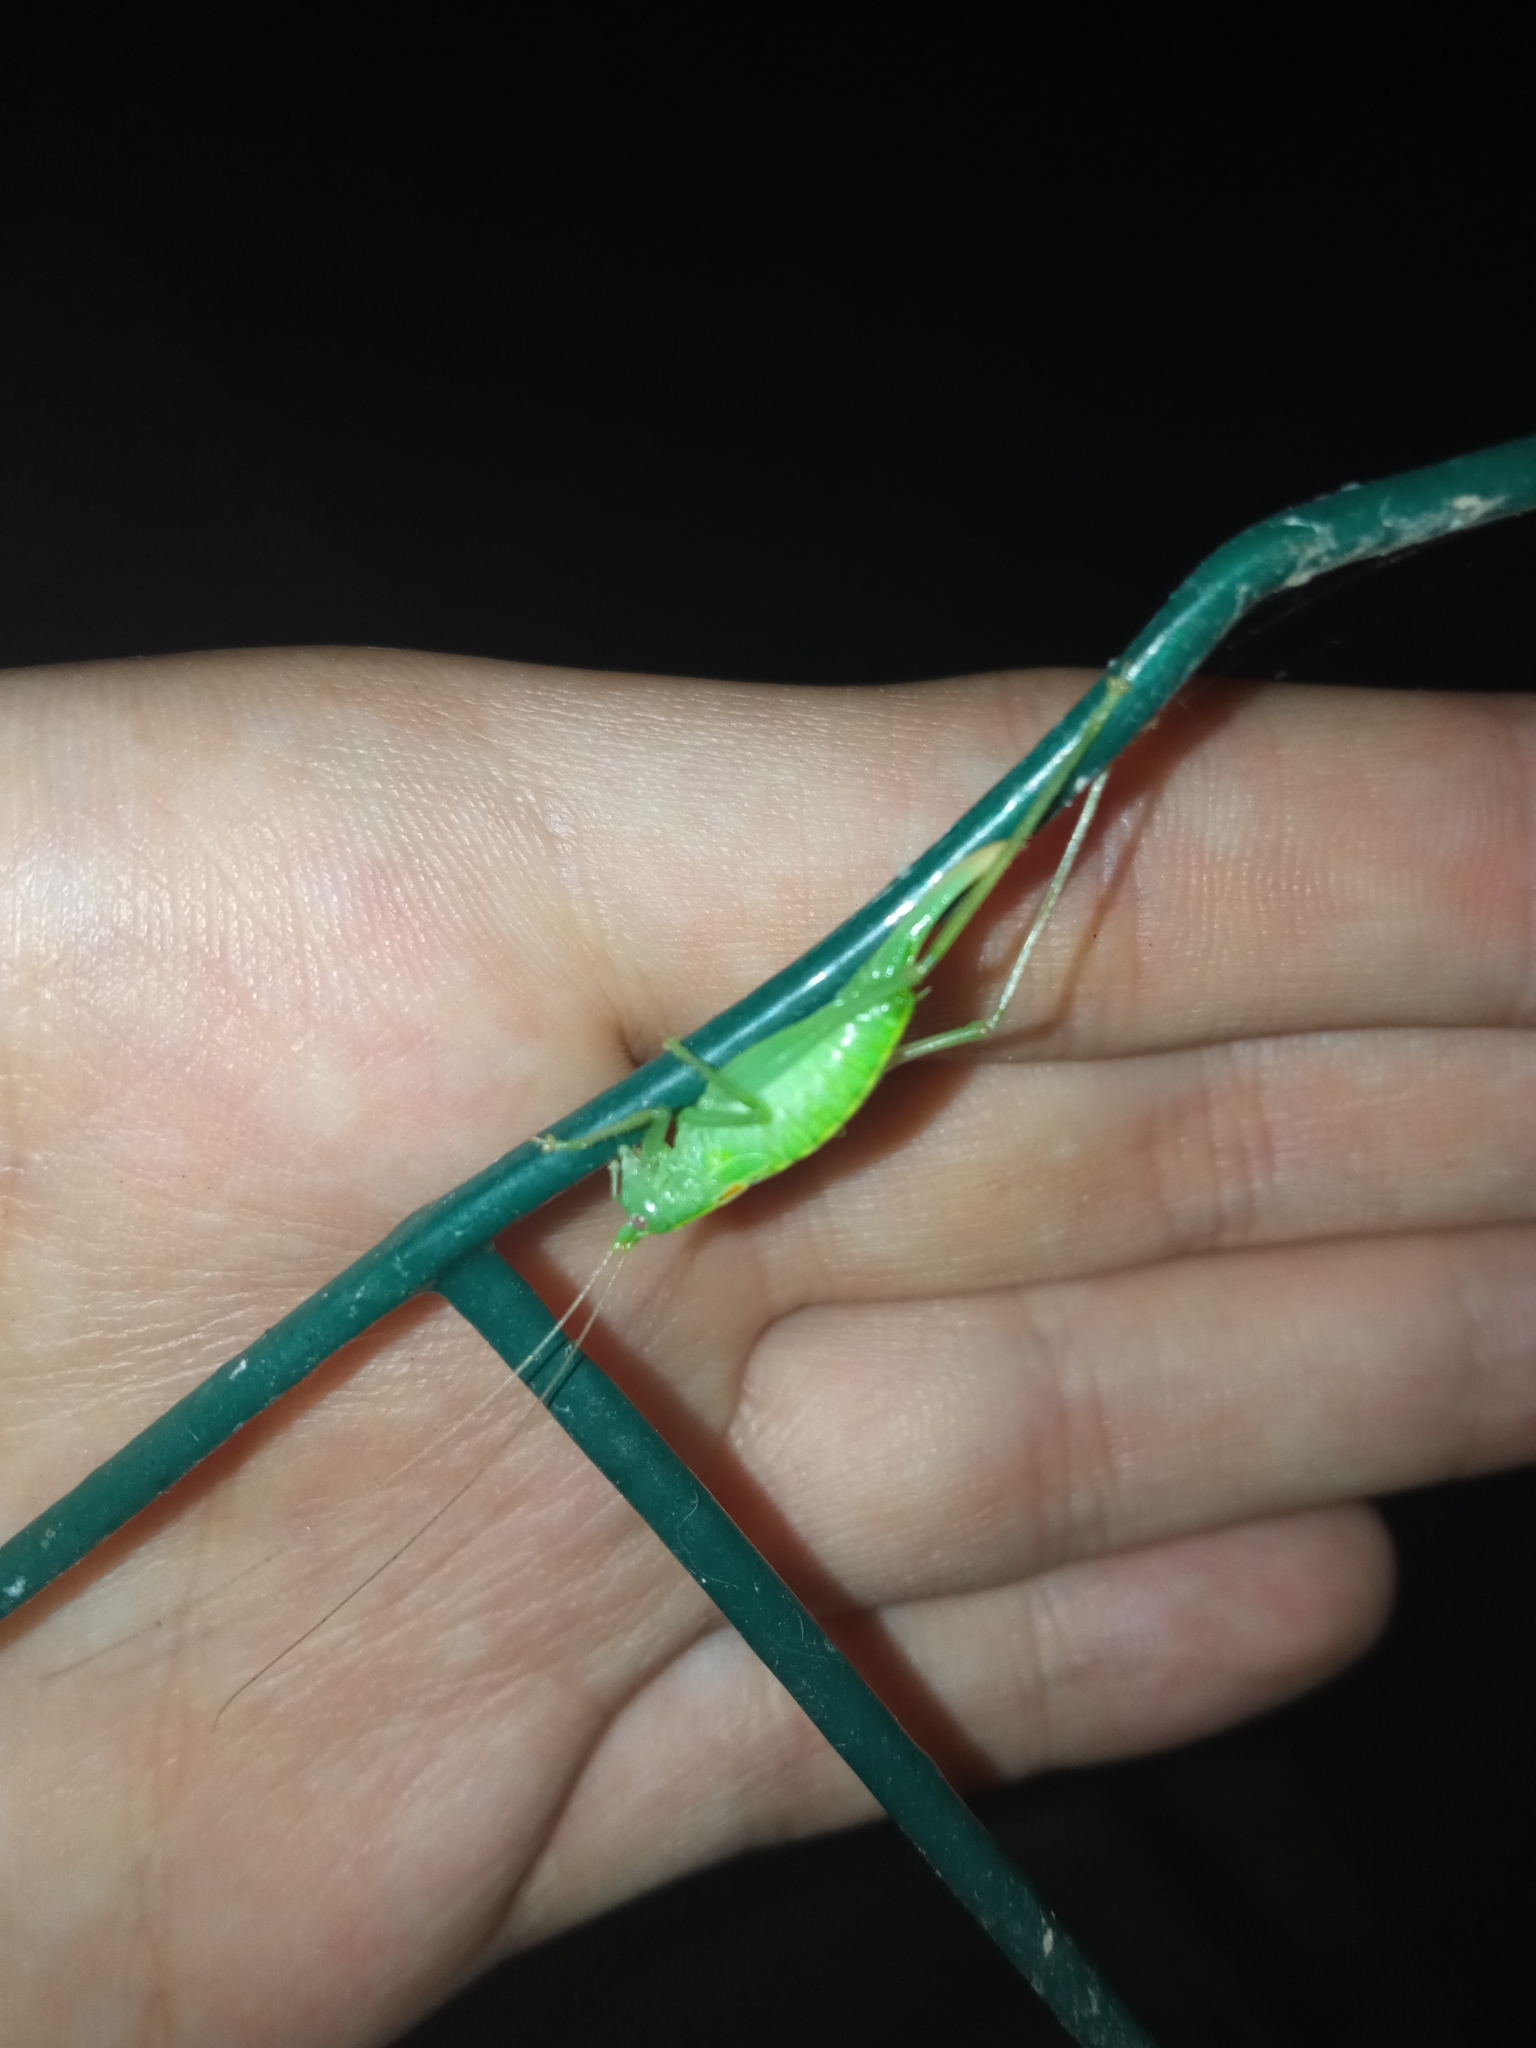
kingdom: Animalia
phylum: Arthropoda
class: Insecta
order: Orthoptera
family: Tettigoniidae
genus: Meconema
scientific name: Meconema meridionale
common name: Southern oak bush-cricket
